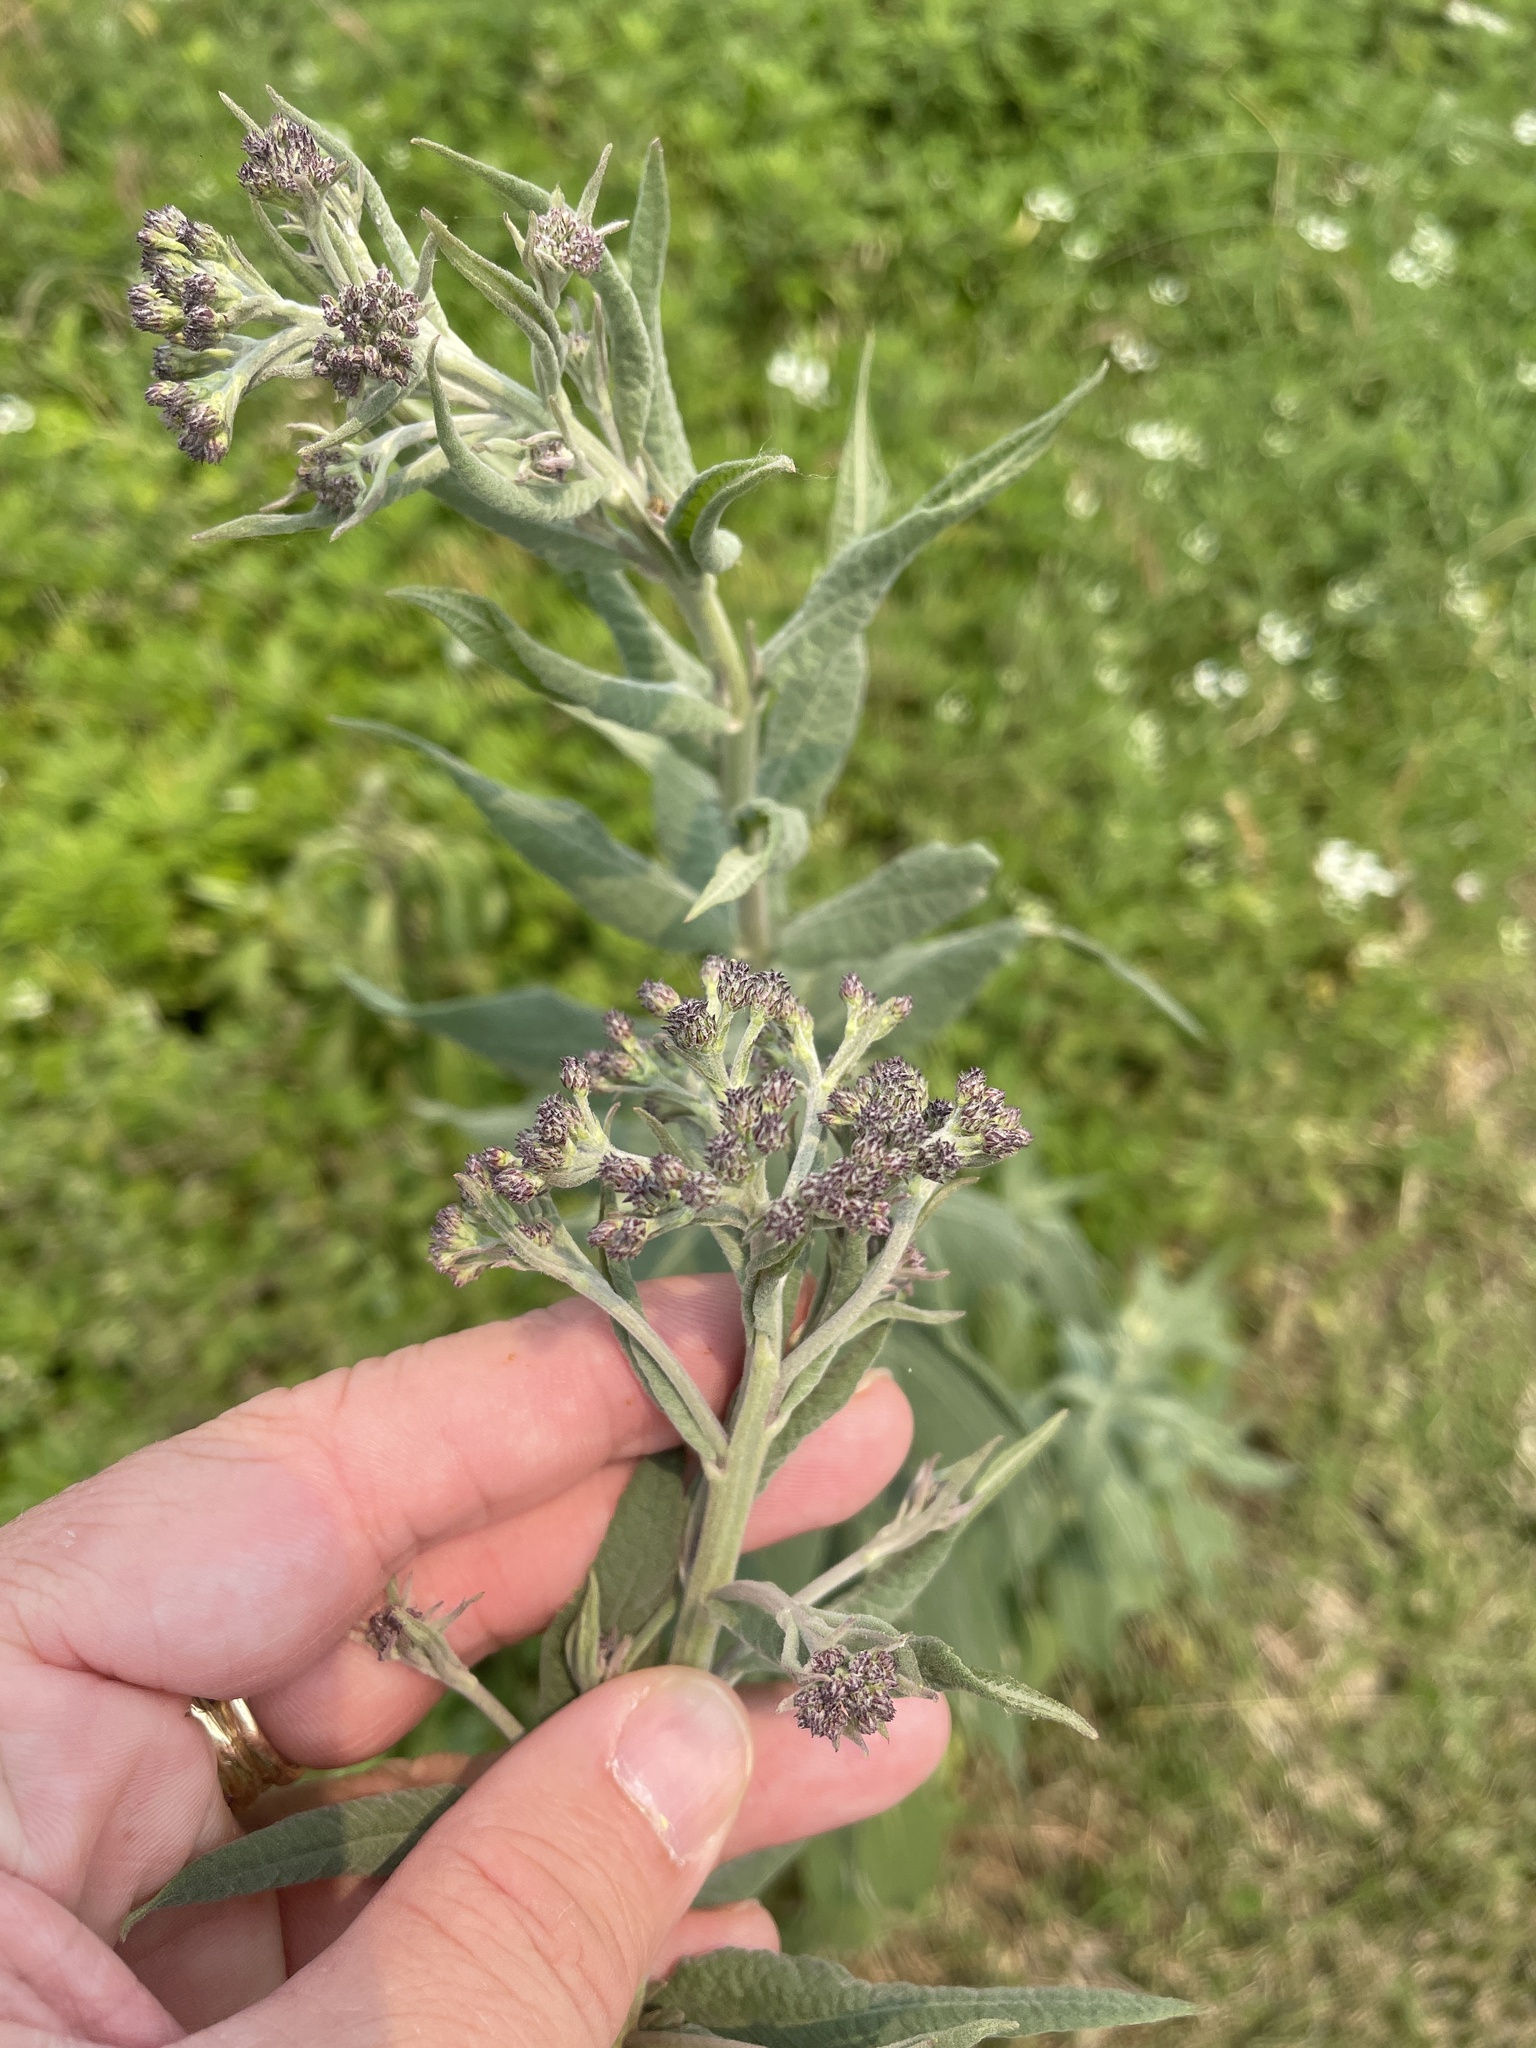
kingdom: Plantae
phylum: Tracheophyta
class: Magnoliopsida
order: Asterales
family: Asteraceae
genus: Pluchea
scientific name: Pluchea odorata
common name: Saltmarsh fleabane
